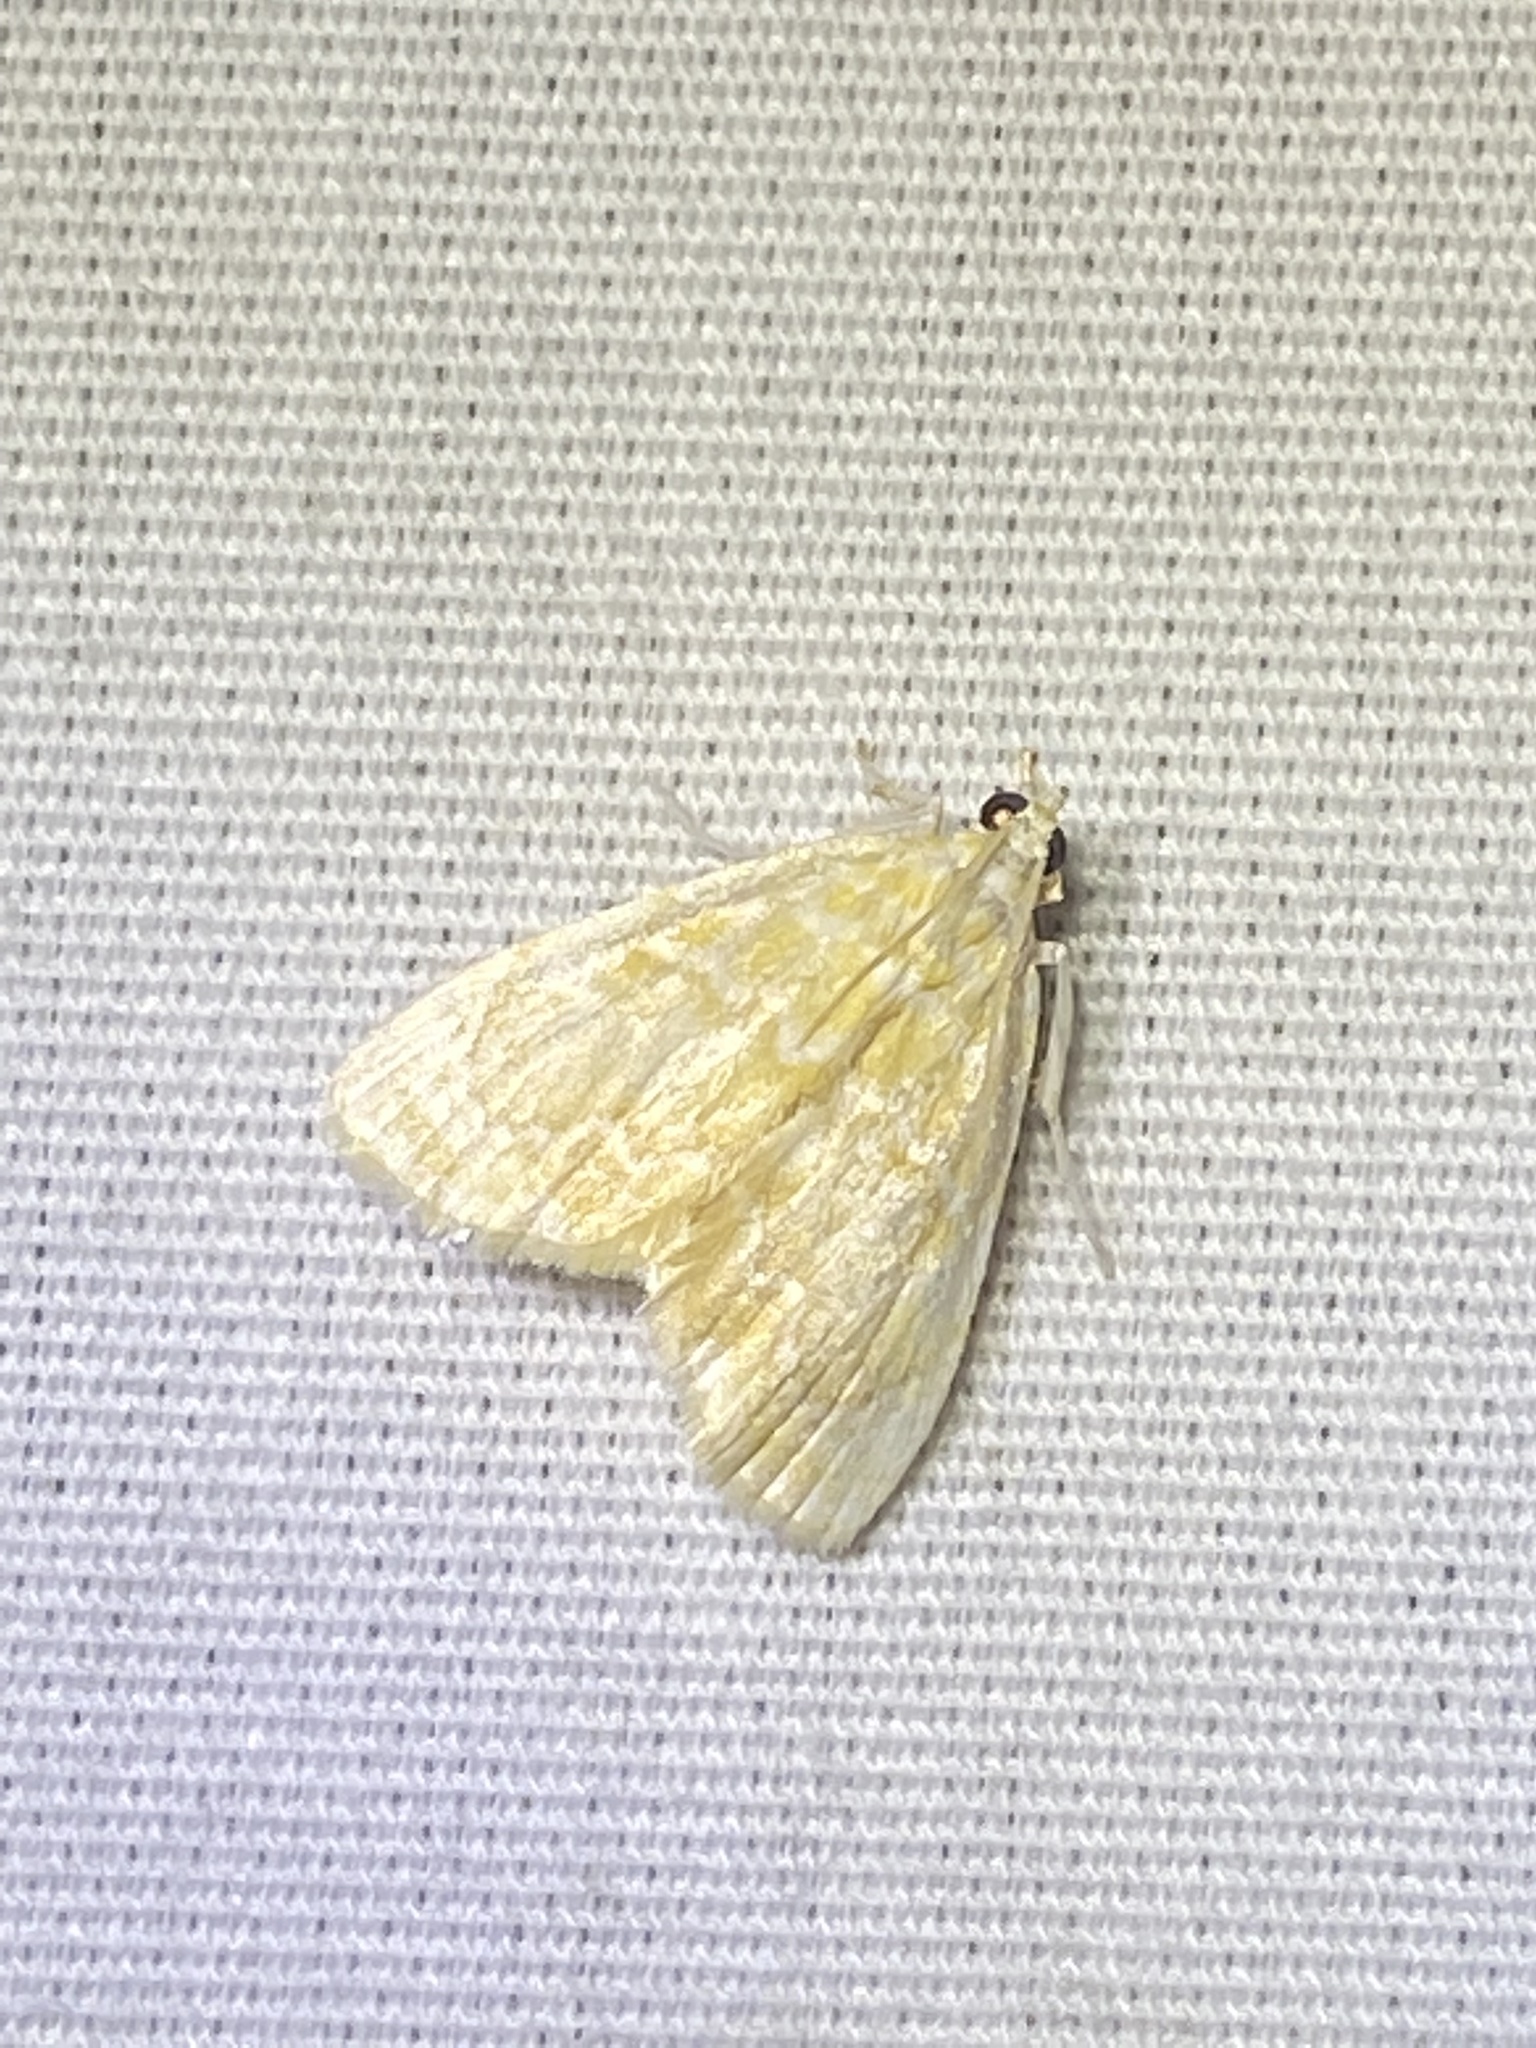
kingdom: Animalia
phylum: Arthropoda
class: Insecta
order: Lepidoptera
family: Crambidae
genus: Glaphyria
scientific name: Glaphyria glaphyralis
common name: Common glaphyria moth
